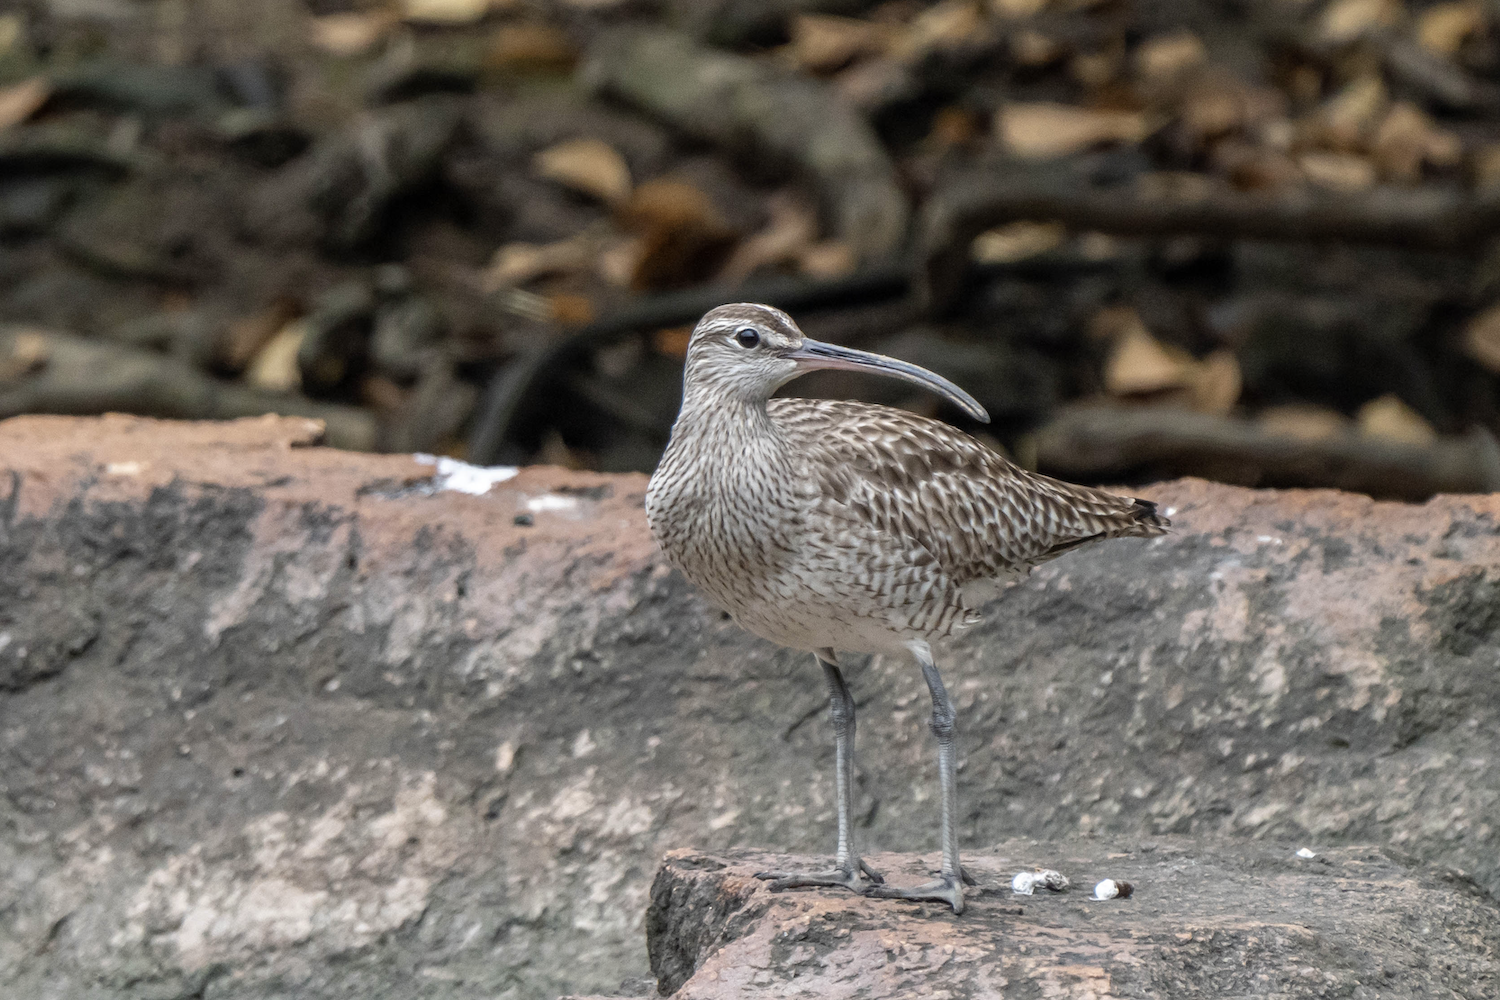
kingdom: Animalia
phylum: Chordata
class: Aves
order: Charadriiformes
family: Scolopacidae
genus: Numenius
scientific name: Numenius phaeopus
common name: Whimbrel
